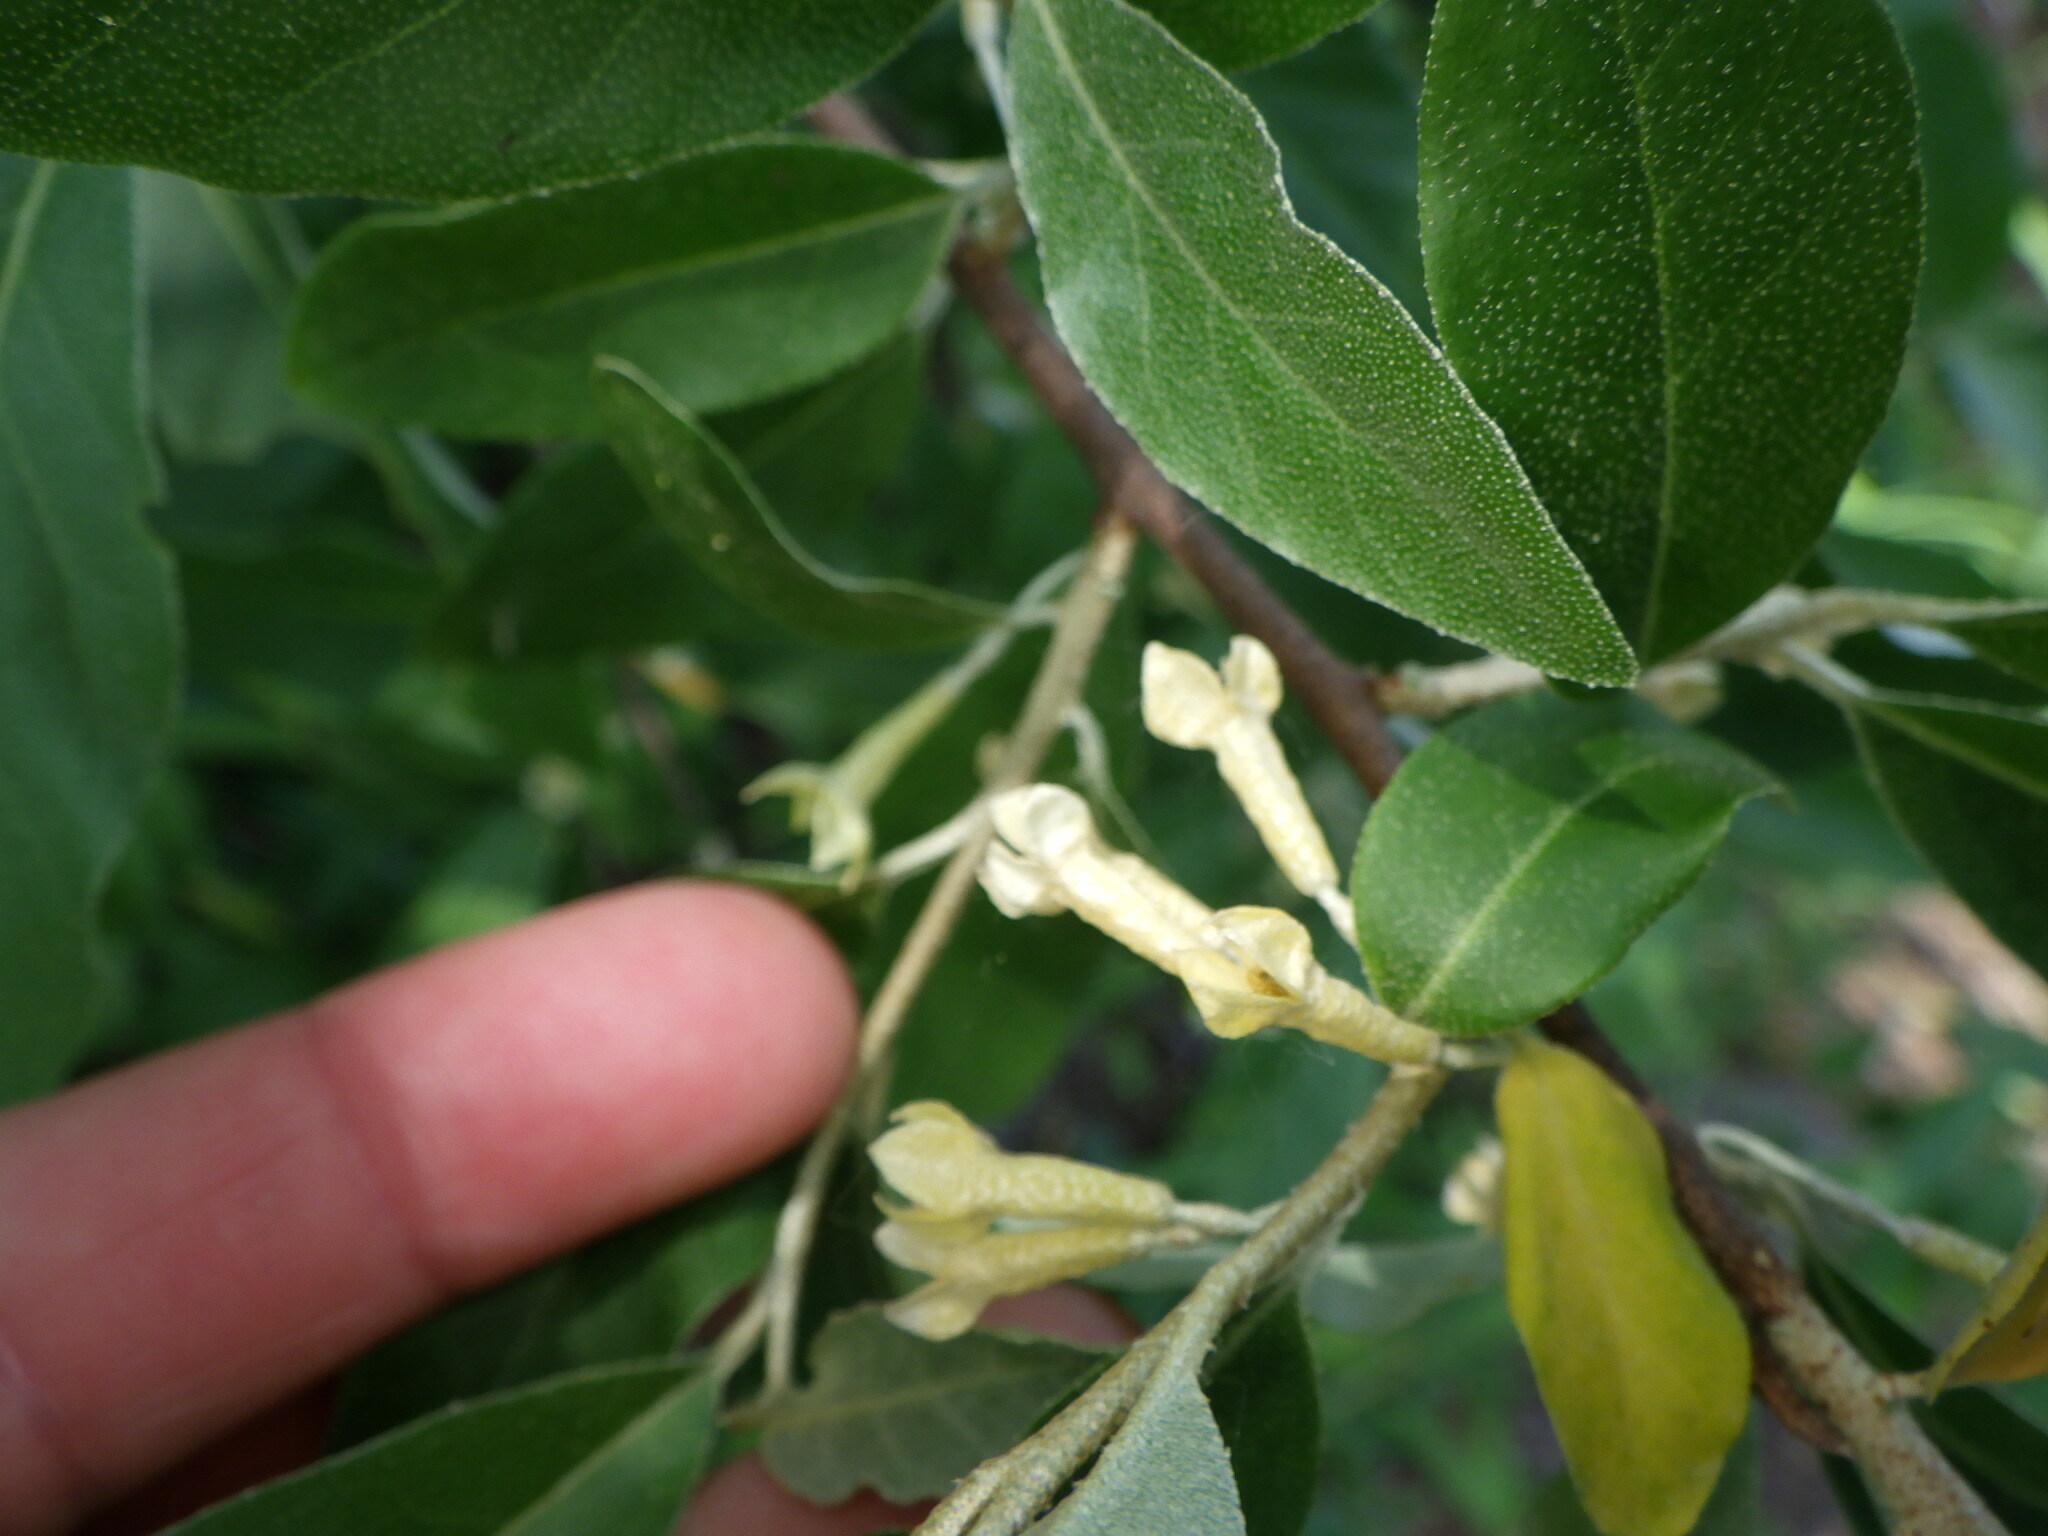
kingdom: Plantae
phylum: Tracheophyta
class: Magnoliopsida
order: Rosales
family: Elaeagnaceae
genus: Elaeagnus
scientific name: Elaeagnus umbellata
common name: Autumn olive
